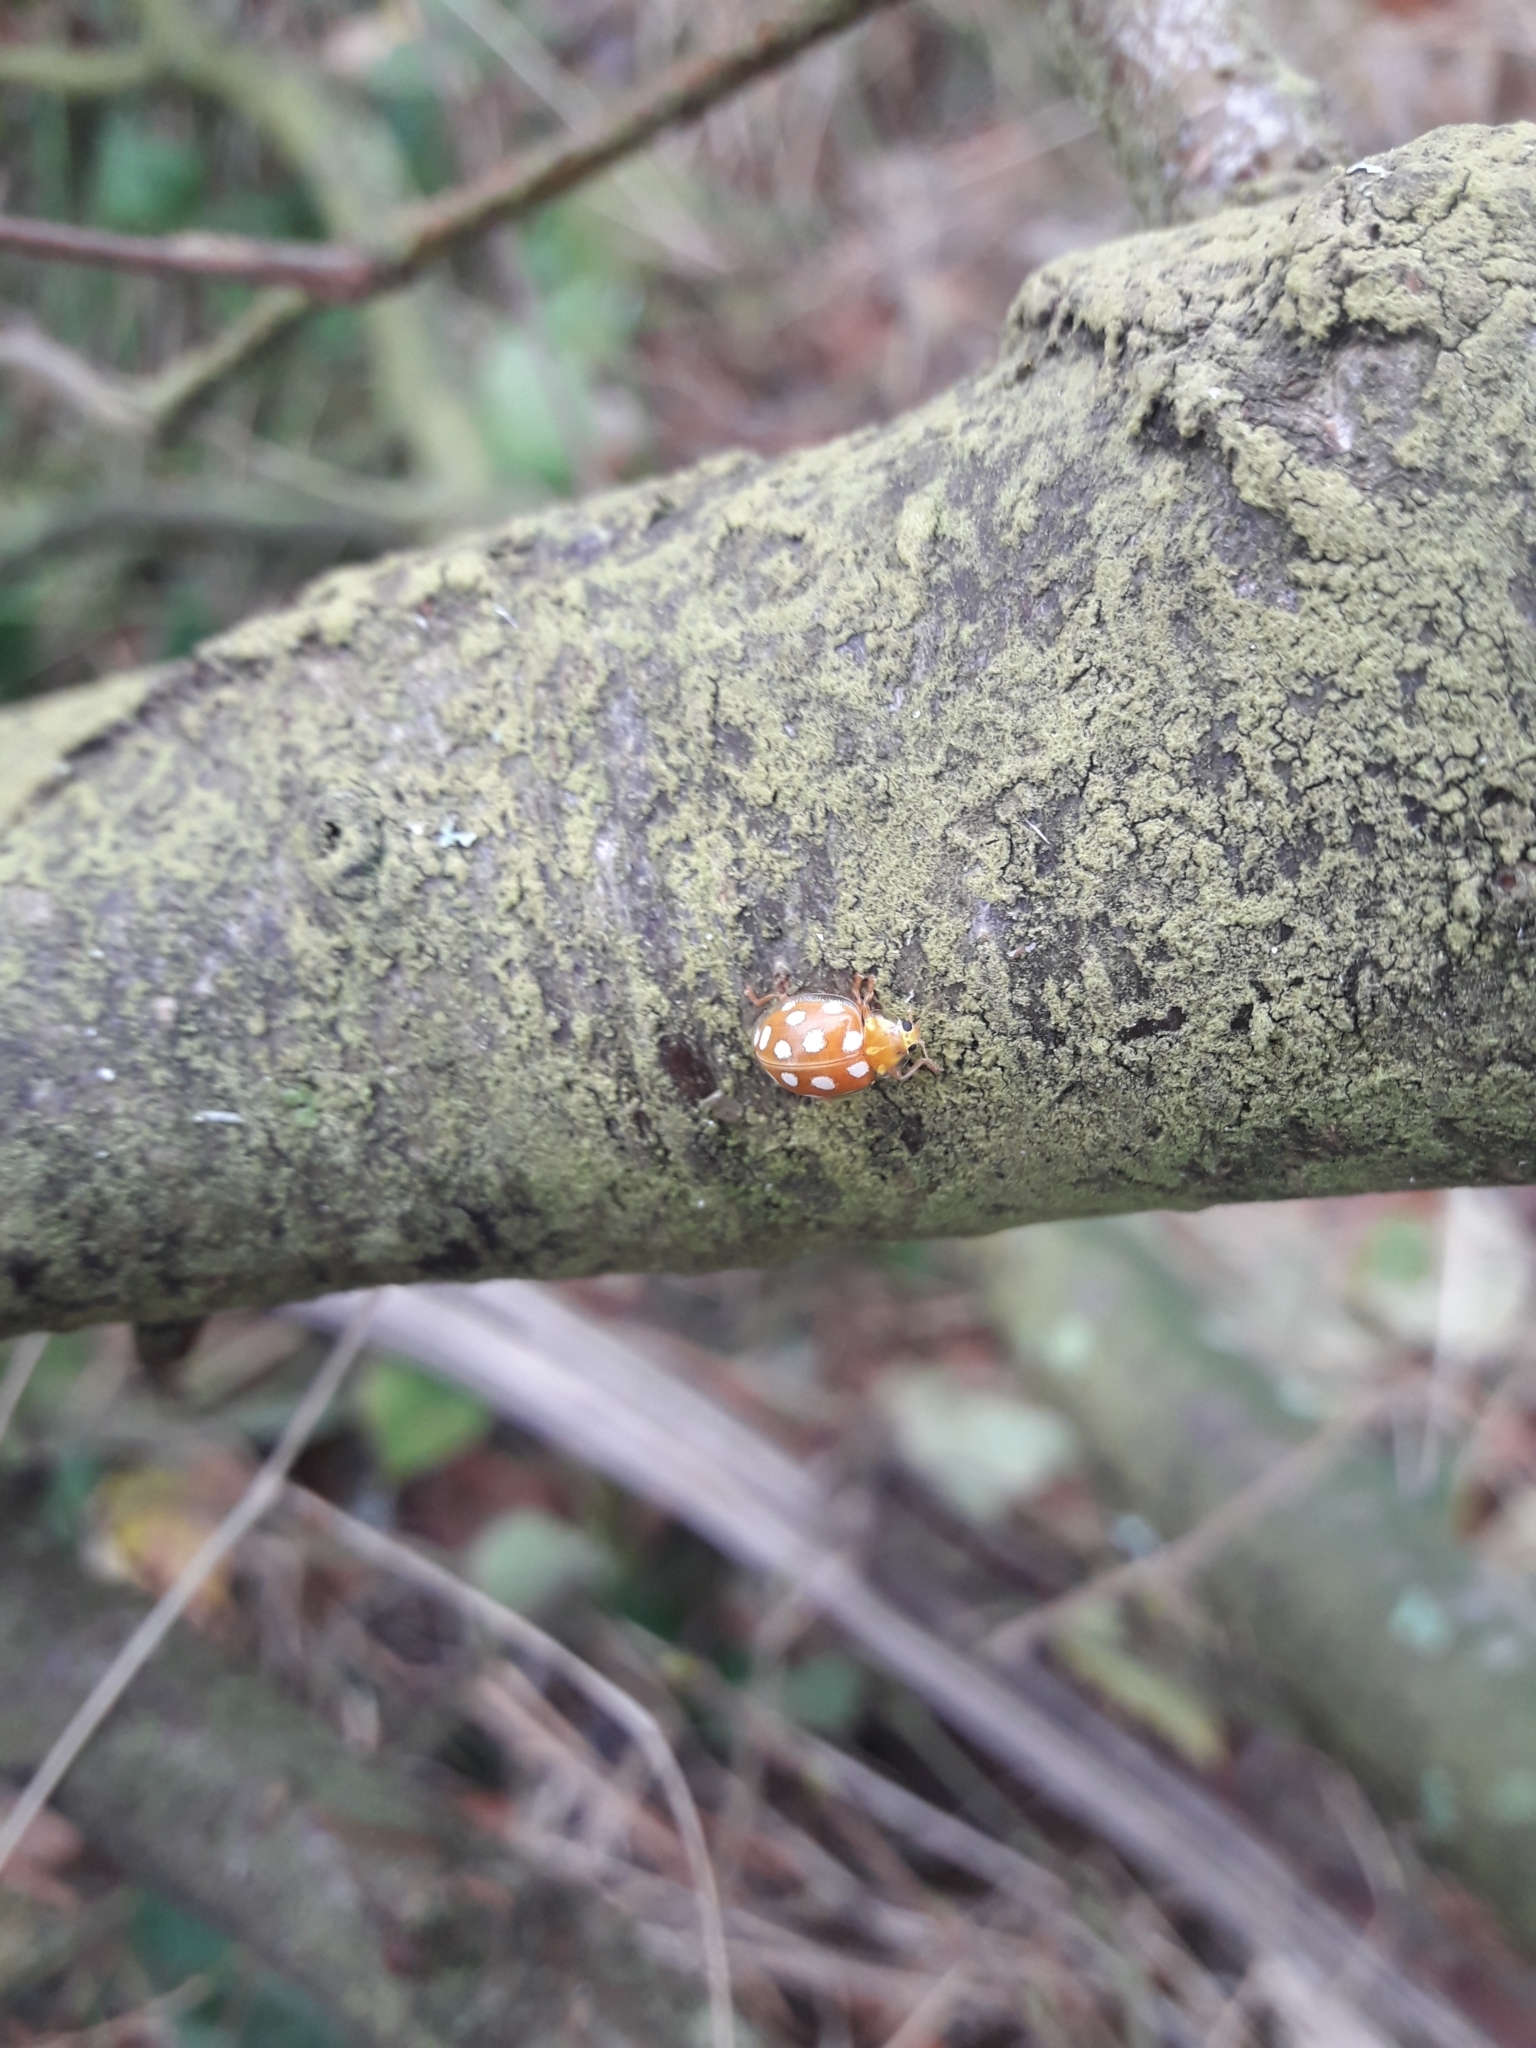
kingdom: Animalia
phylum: Arthropoda
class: Insecta
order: Coleoptera
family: Coccinellidae
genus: Halyzia
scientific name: Halyzia sedecimguttata
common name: Orange ladybird
